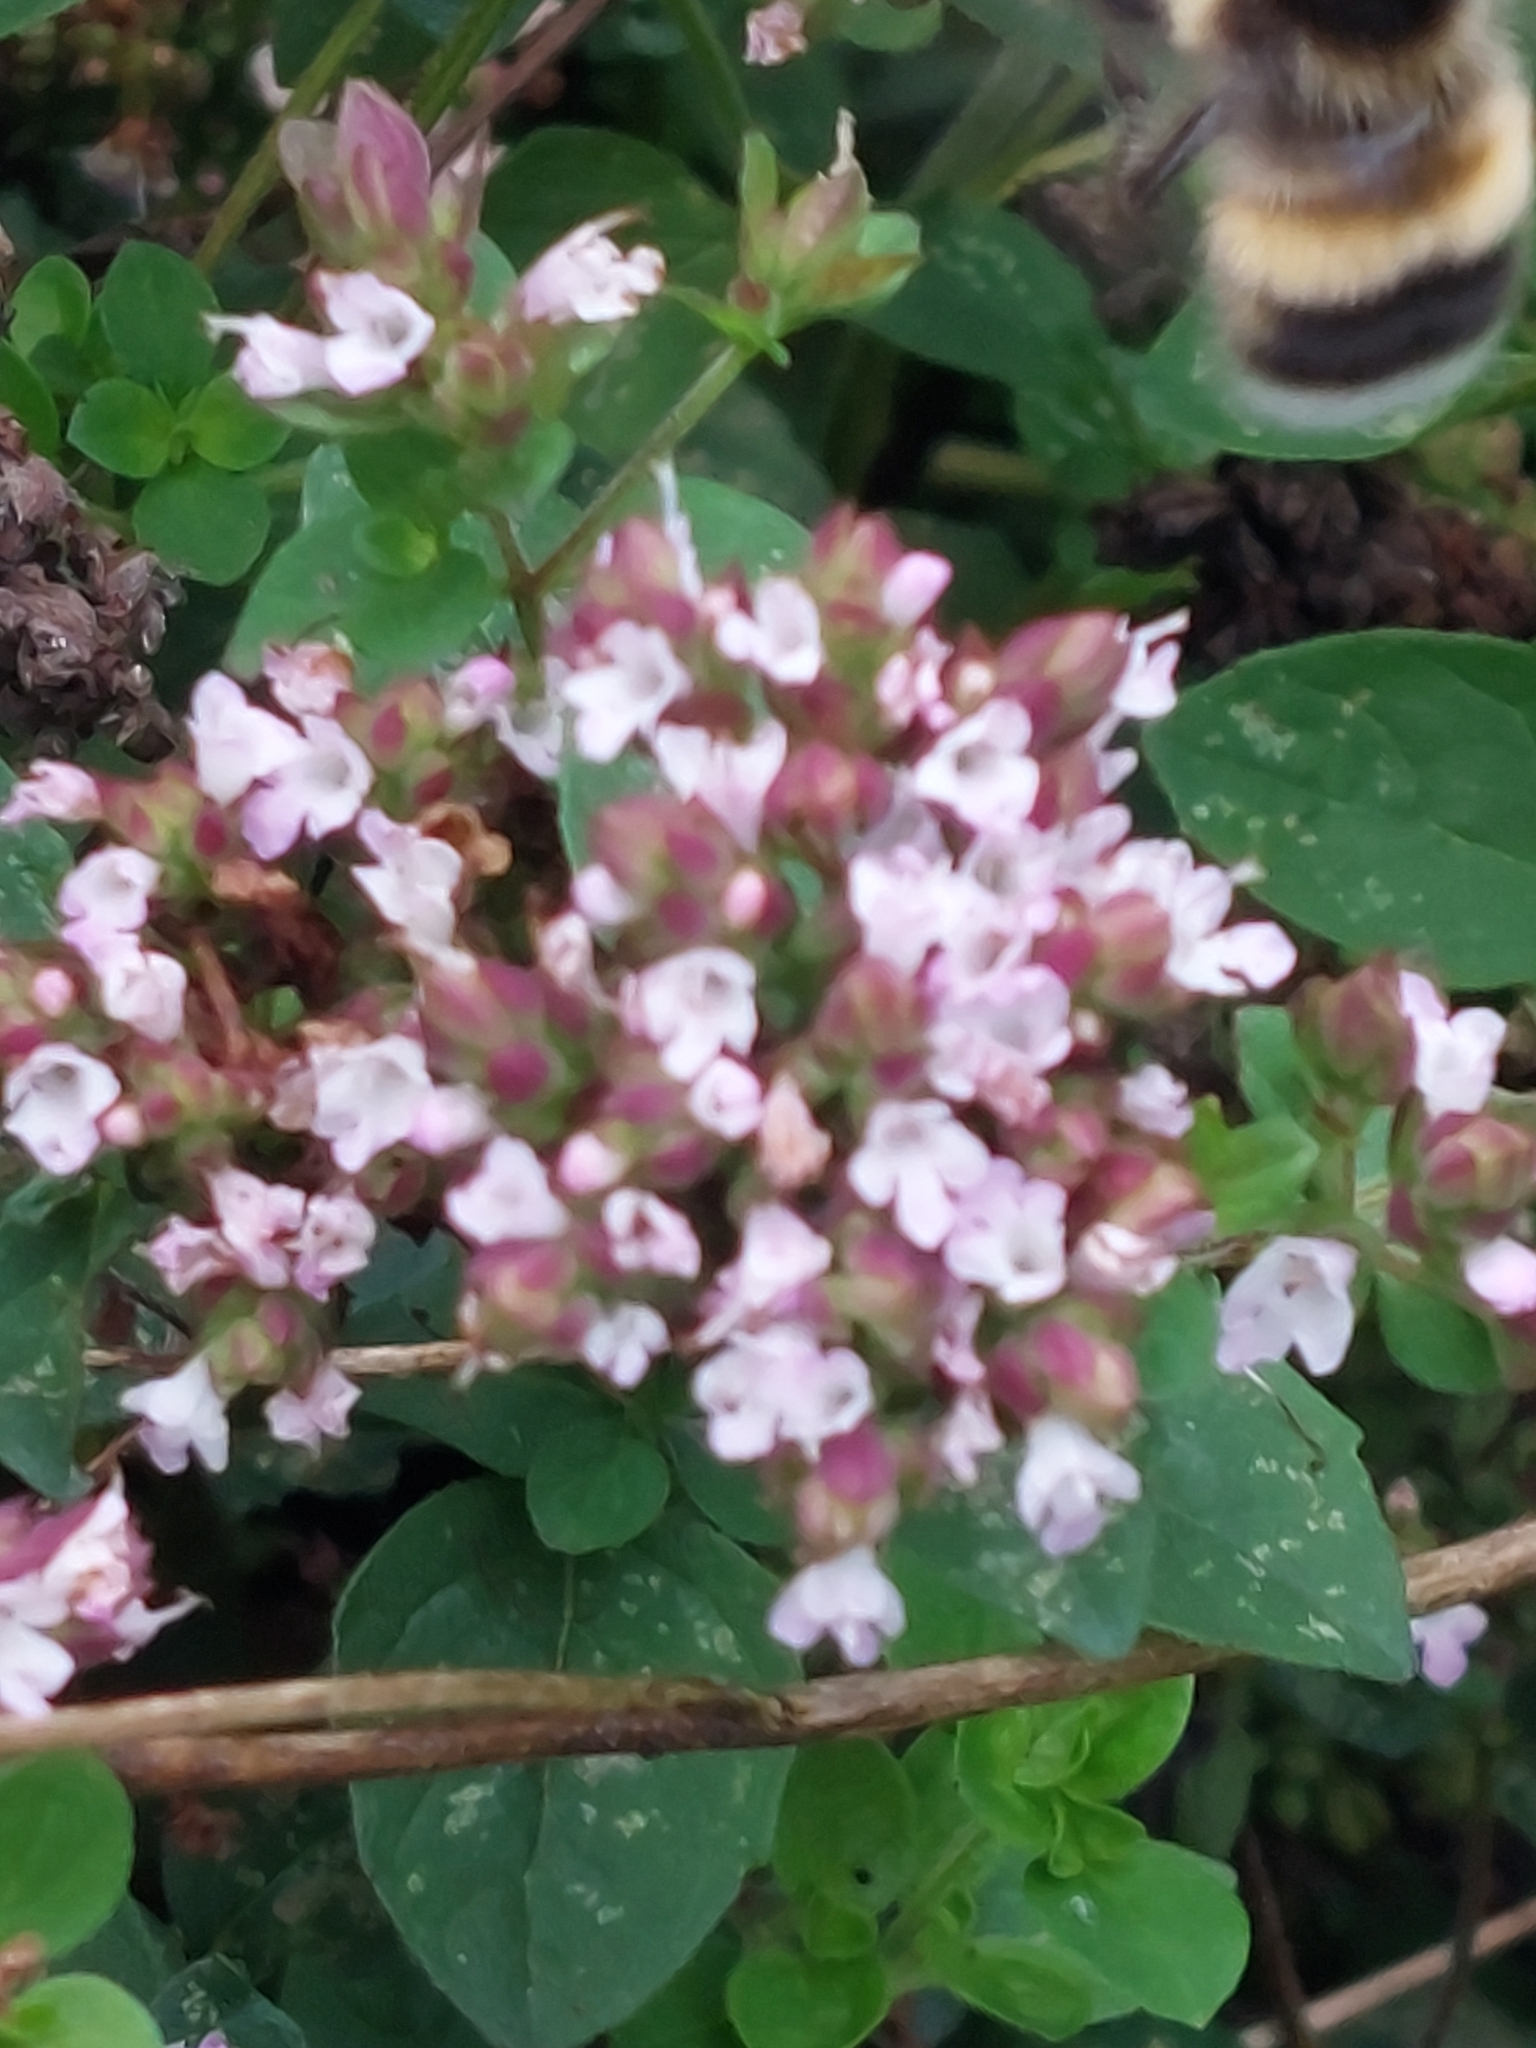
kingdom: Animalia
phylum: Arthropoda
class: Insecta
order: Hymenoptera
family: Apidae
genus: Bombus
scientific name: Bombus lucorum
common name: White-tailed bumblebee
